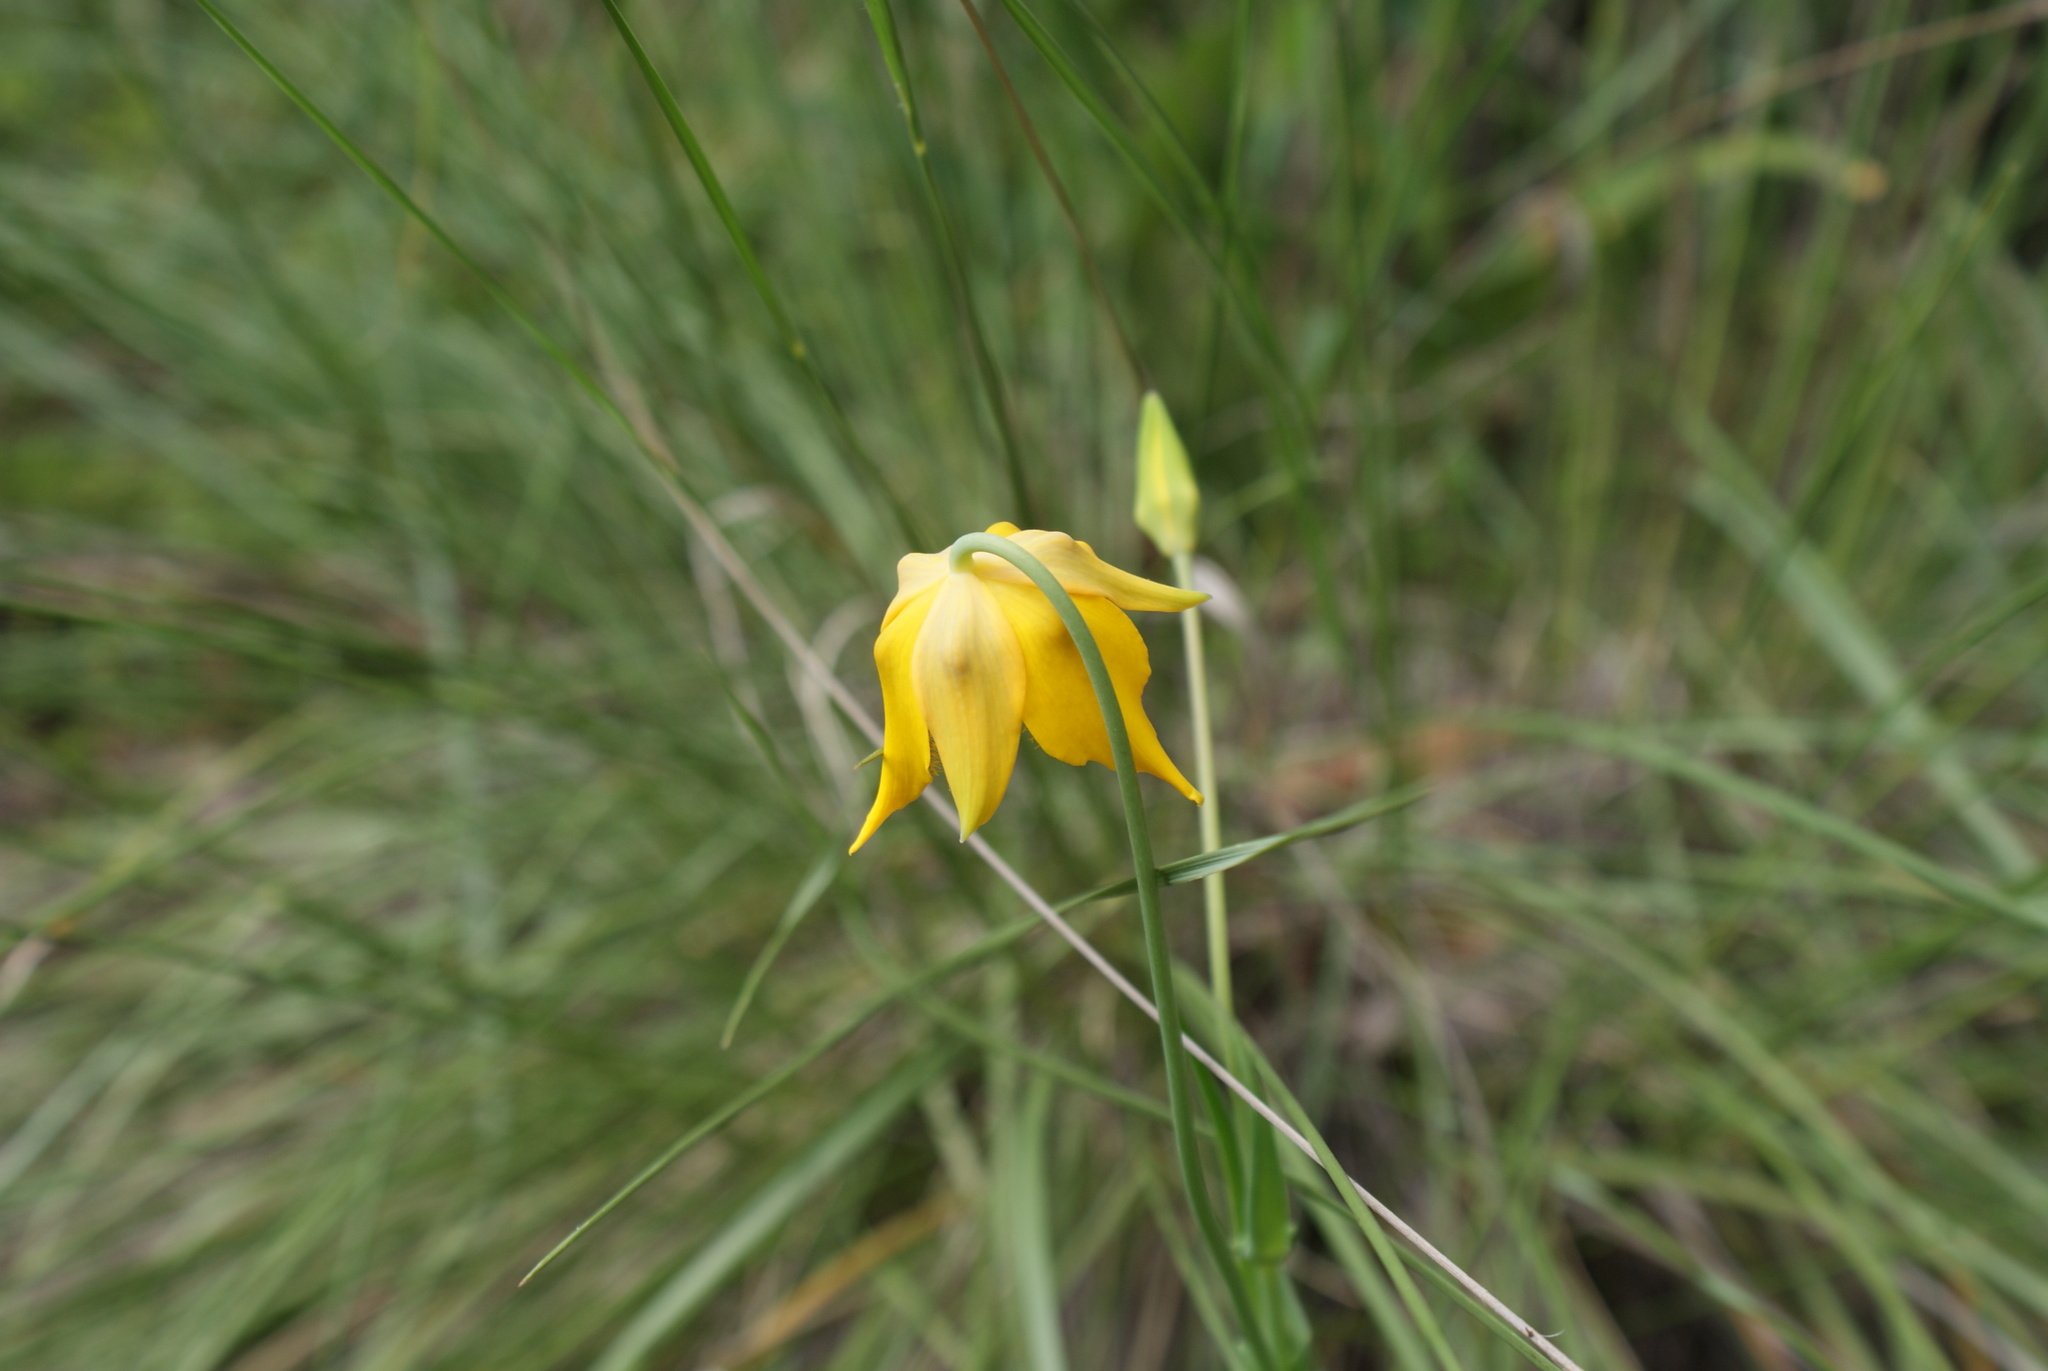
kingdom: Plantae
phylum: Tracheophyta
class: Liliopsida
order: Liliales
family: Liliaceae
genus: Calochortus
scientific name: Calochortus barbatus
